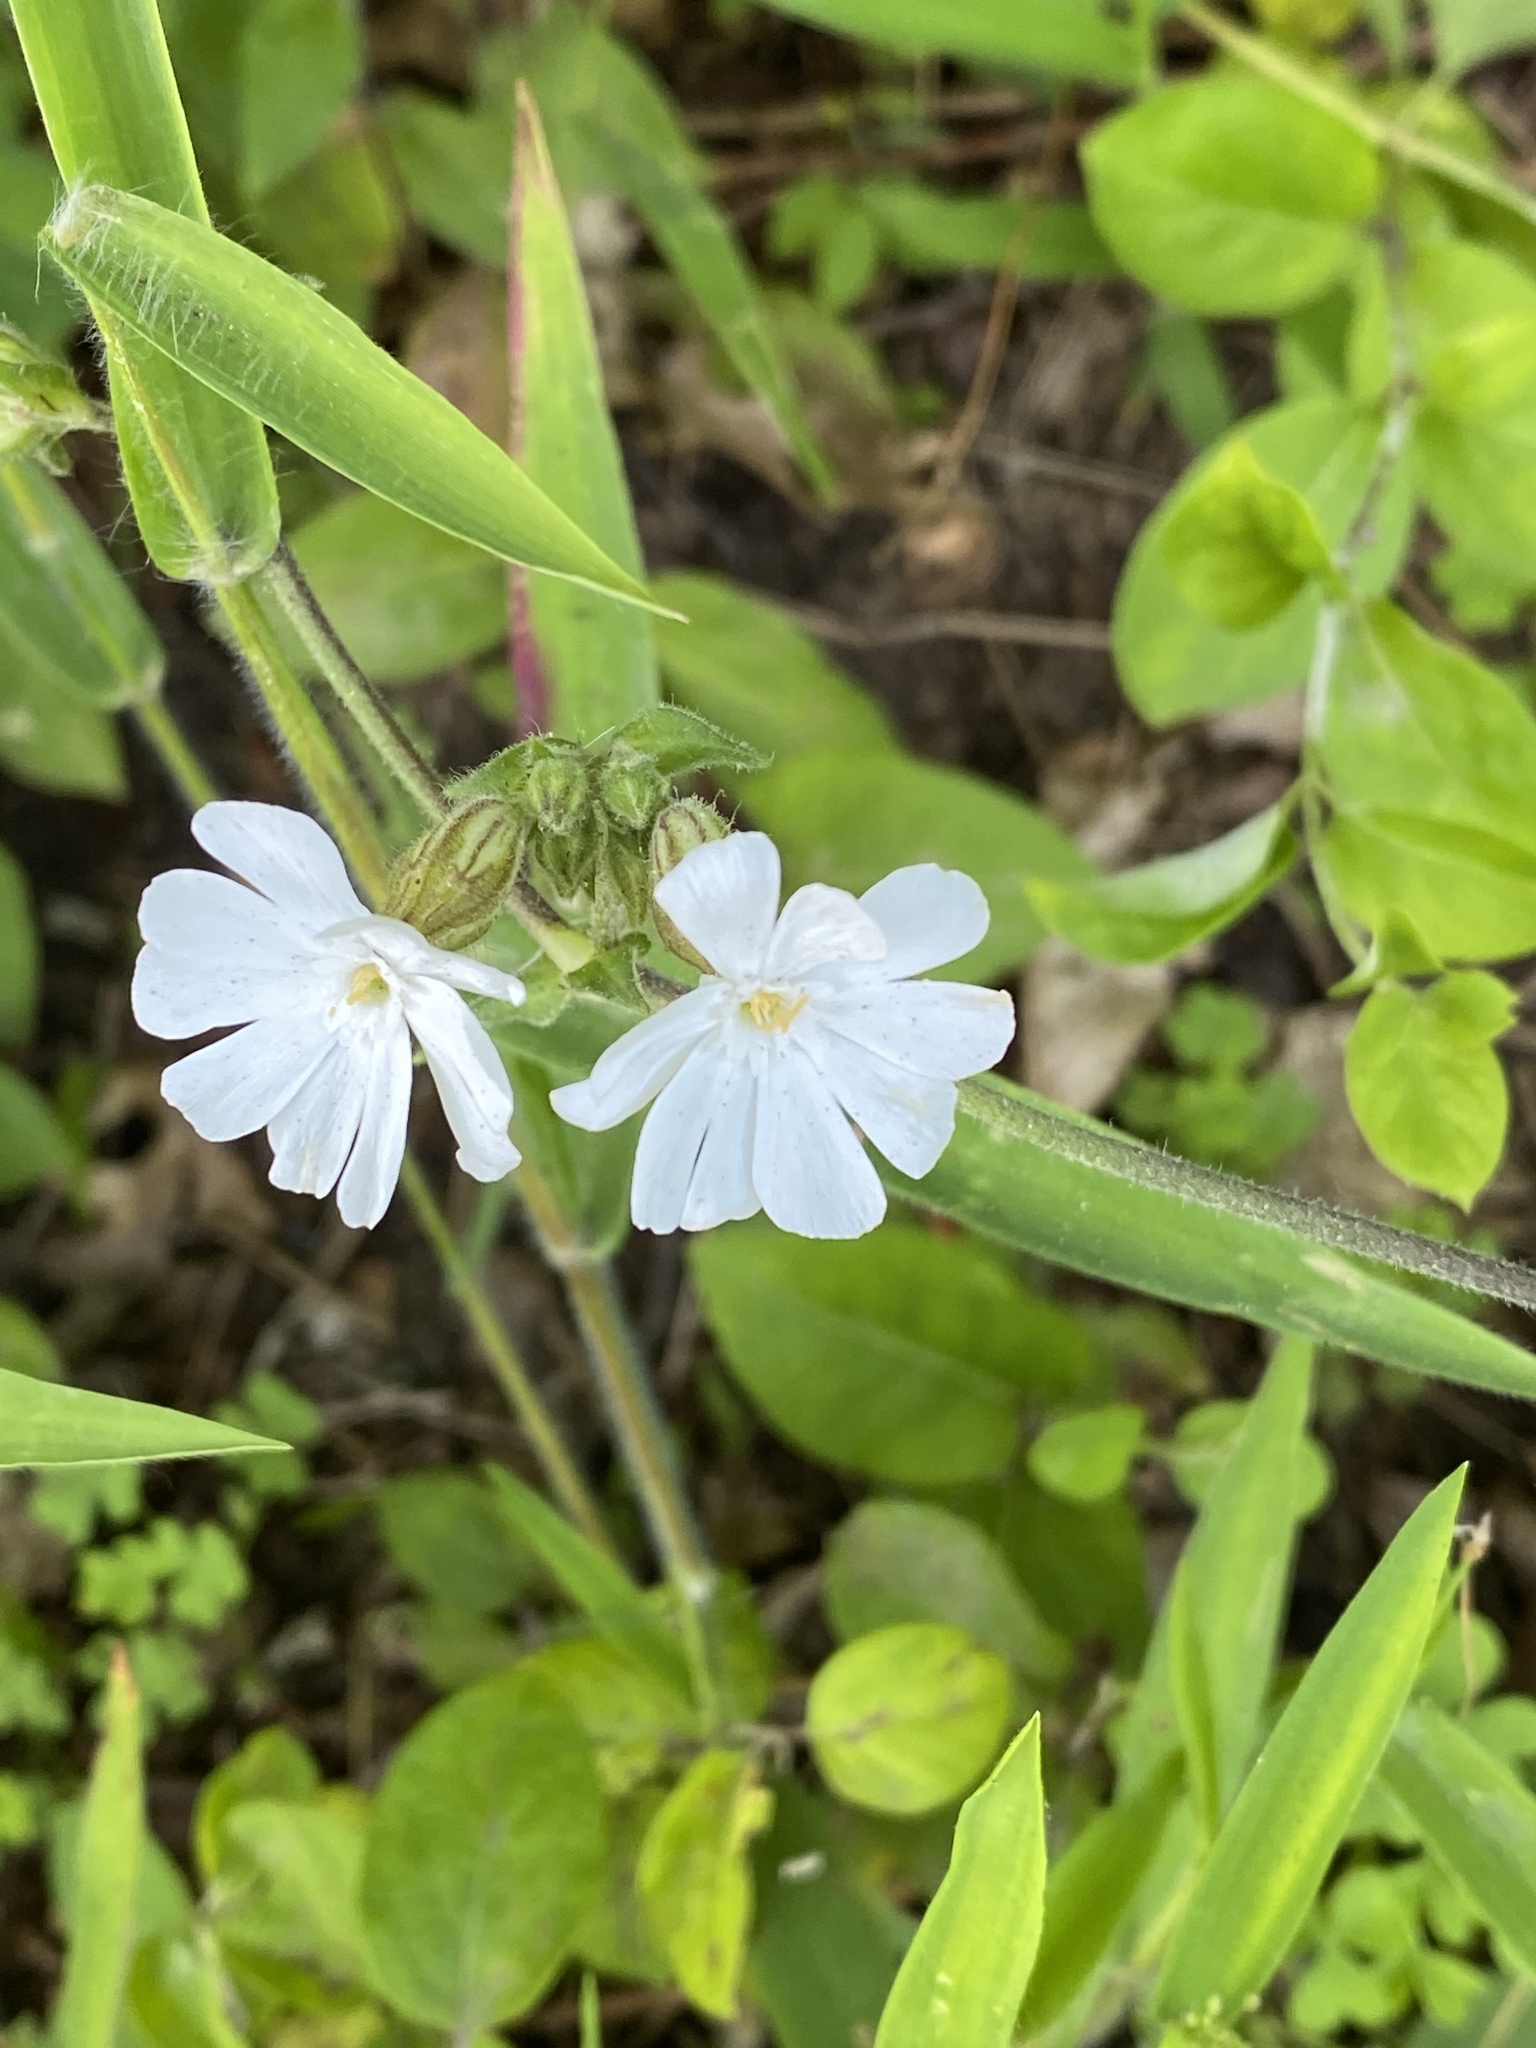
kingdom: Plantae
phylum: Tracheophyta
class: Magnoliopsida
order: Caryophyllales
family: Caryophyllaceae
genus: Silene
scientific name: Silene latifolia
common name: White campion
